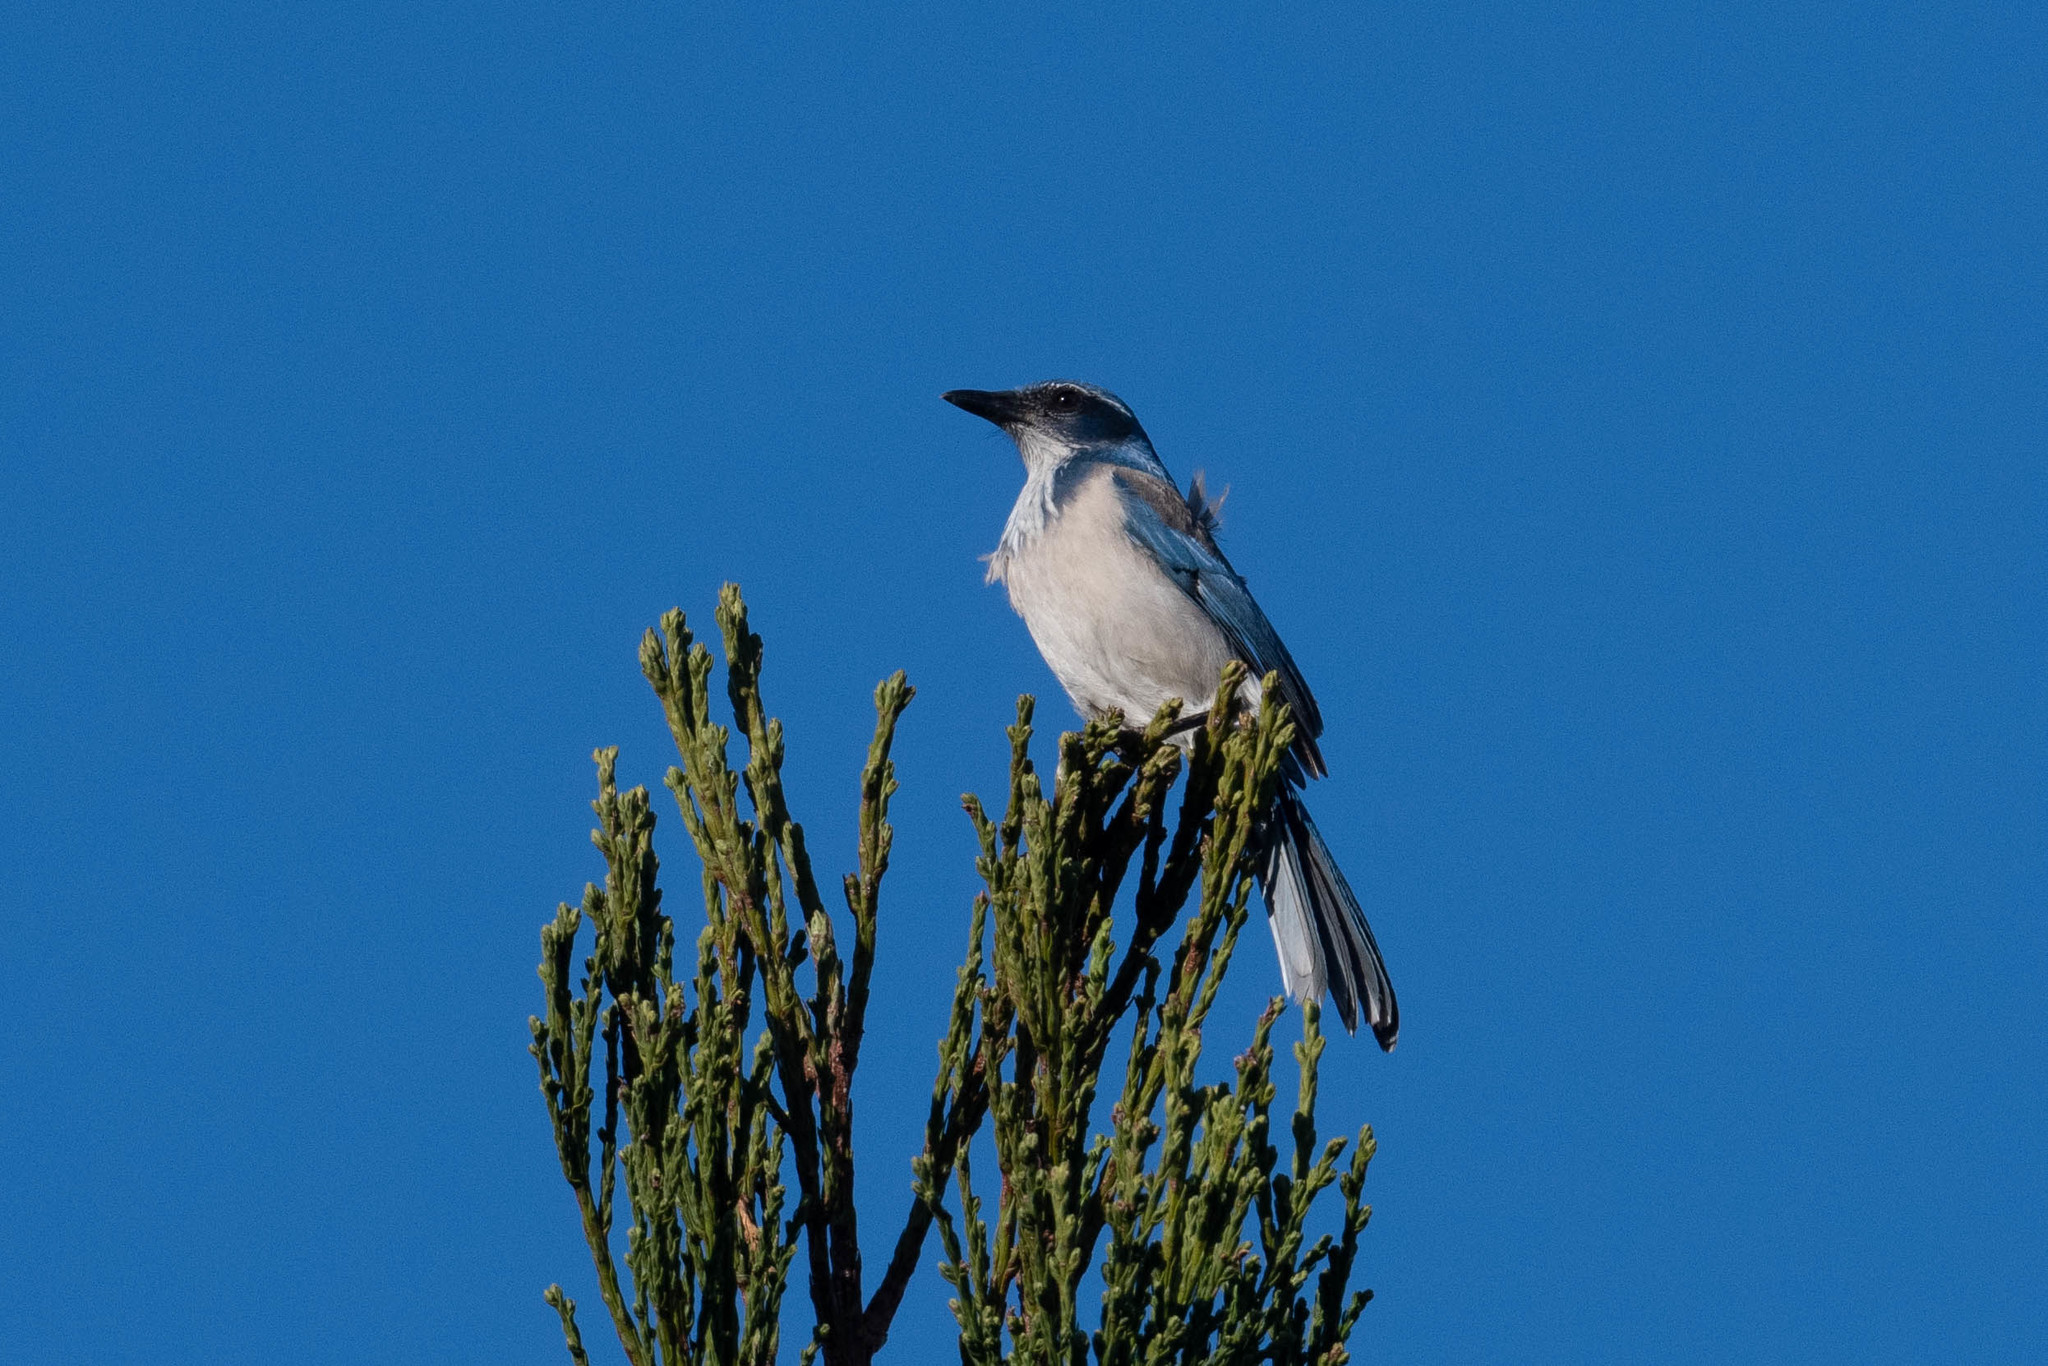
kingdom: Animalia
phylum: Chordata
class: Aves
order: Passeriformes
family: Corvidae
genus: Aphelocoma
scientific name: Aphelocoma californica
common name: California scrub-jay
